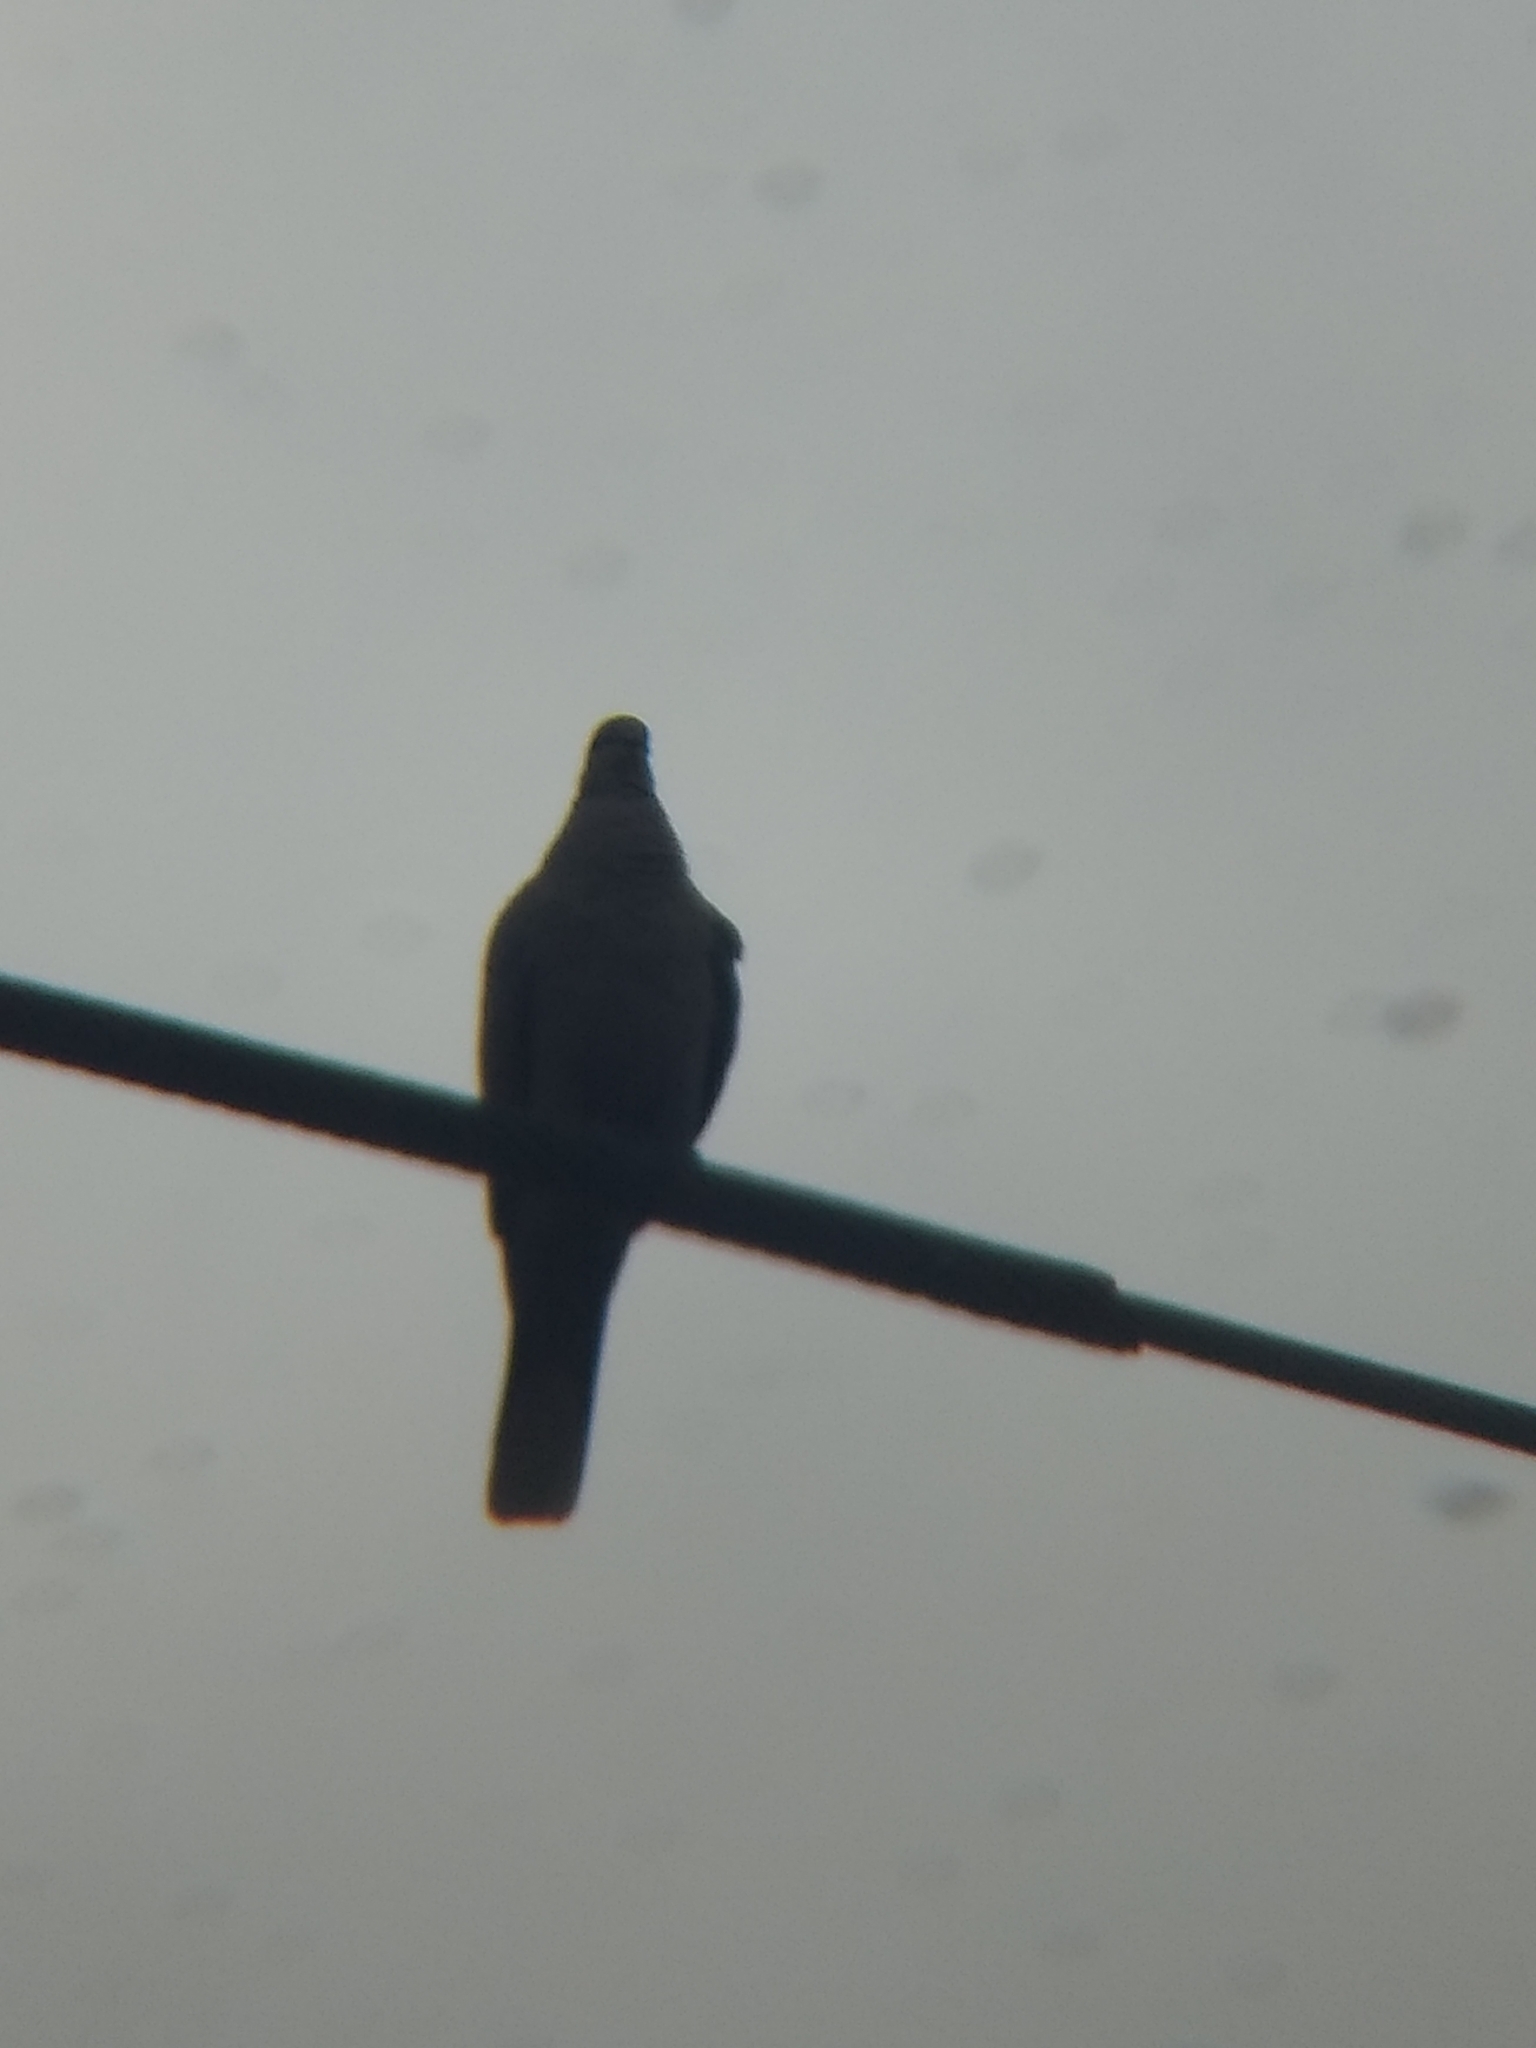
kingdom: Animalia
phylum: Chordata
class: Aves
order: Columbiformes
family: Columbidae
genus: Streptopelia
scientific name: Streptopelia decaocto
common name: Eurasian collared dove
